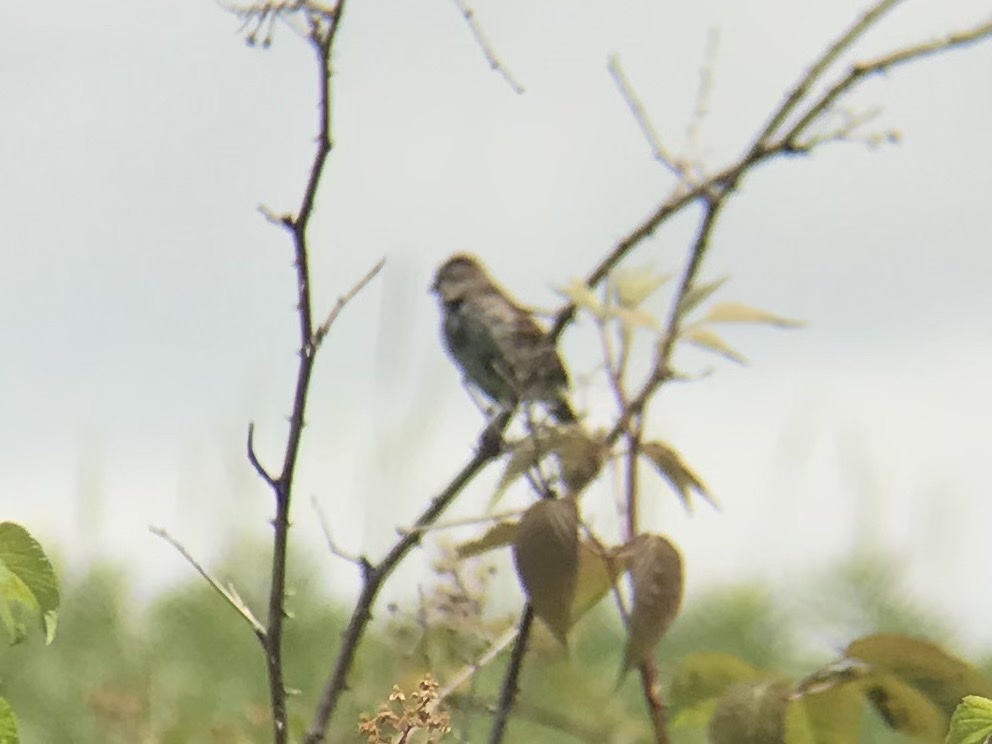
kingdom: Animalia
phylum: Chordata
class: Aves
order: Passeriformes
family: Passerellidae
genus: Melospiza
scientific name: Melospiza melodia
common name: Song sparrow
